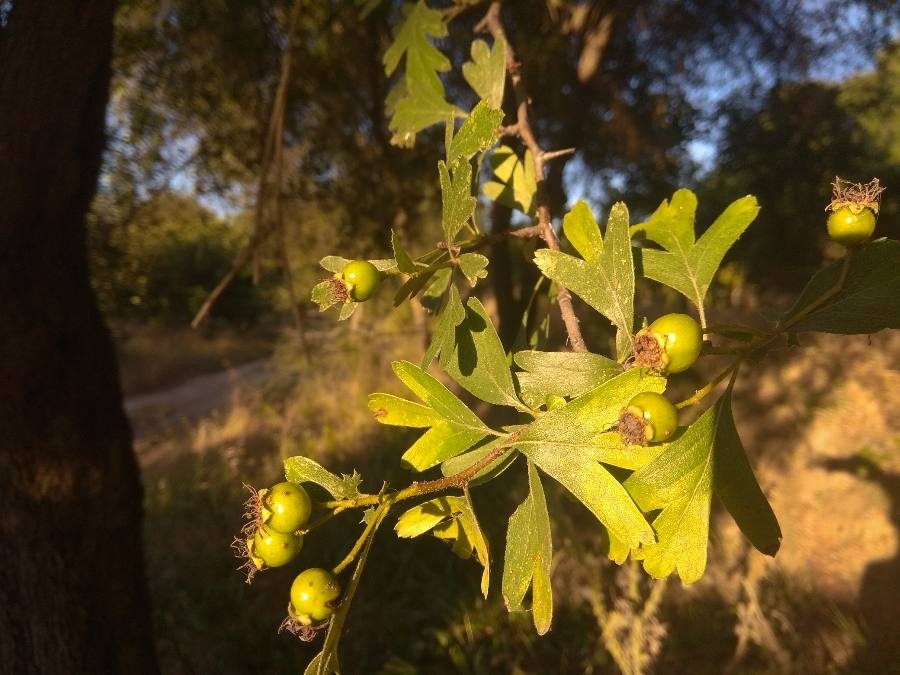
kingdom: Plantae
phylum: Tracheophyta
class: Magnoliopsida
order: Rosales
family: Rosaceae
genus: Crataegus
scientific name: Crataegus monogyna
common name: Hawthorn
